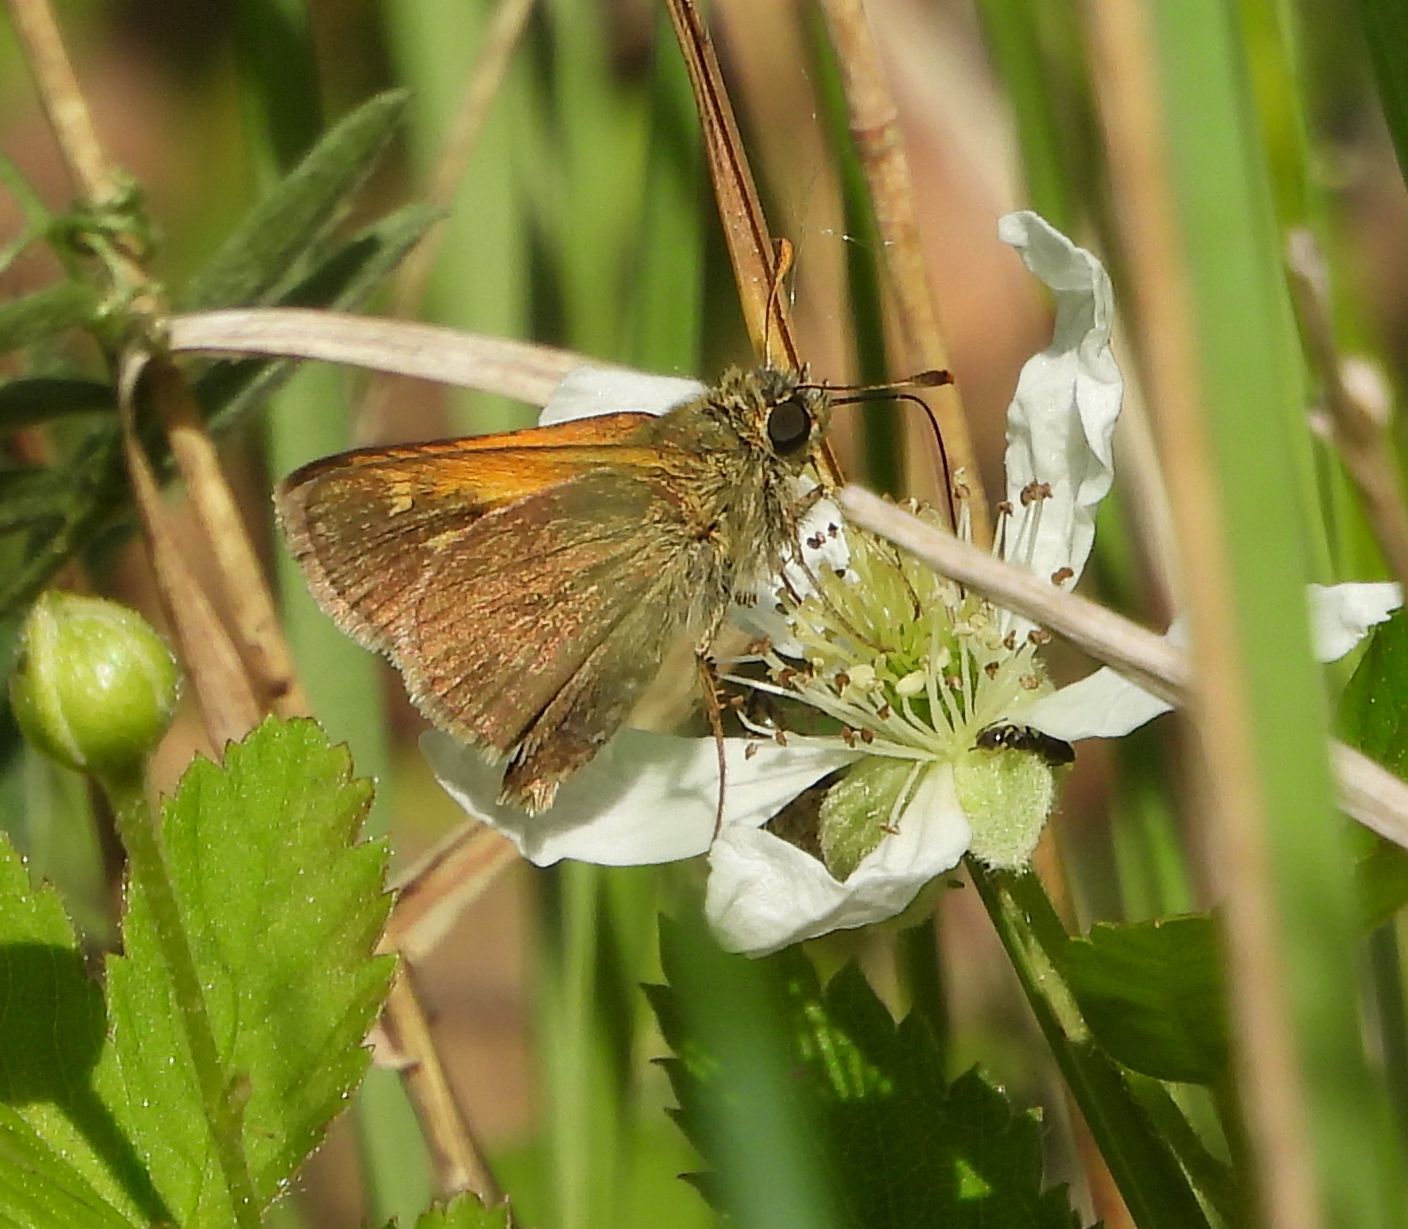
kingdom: Animalia
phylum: Arthropoda
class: Insecta
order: Lepidoptera
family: Hesperiidae
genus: Polites
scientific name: Polites themistocles
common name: Tawny-edged skipper
